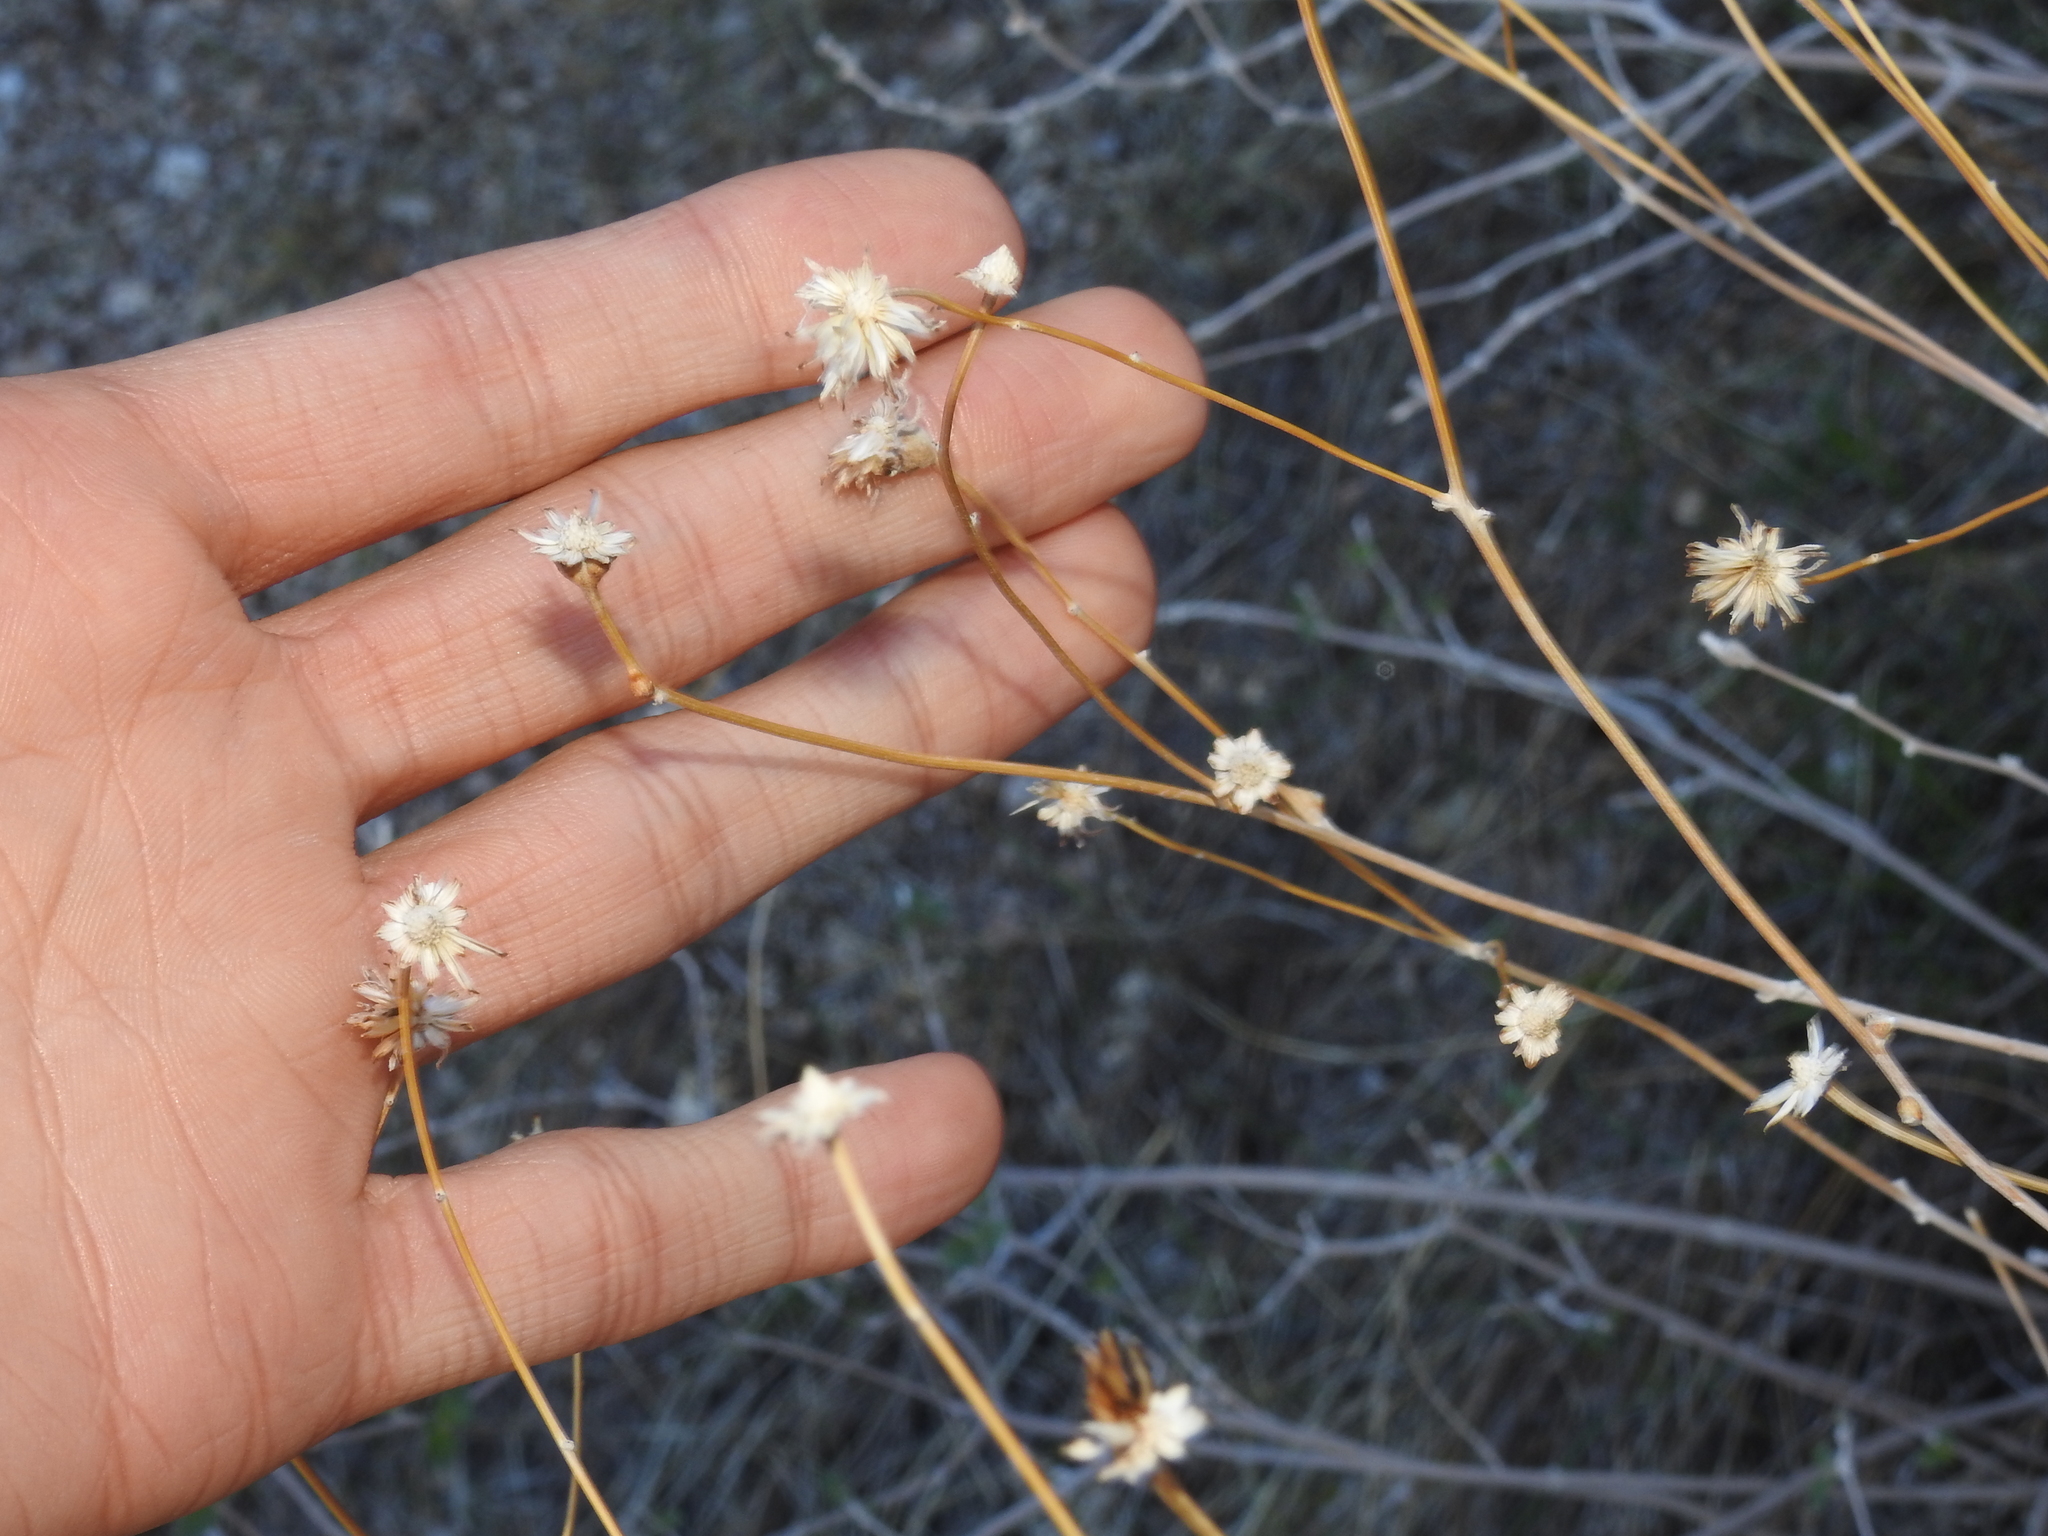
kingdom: Plantae
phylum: Tracheophyta
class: Magnoliopsida
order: Asterales
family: Asteraceae
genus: Bebbia
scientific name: Bebbia juncea
